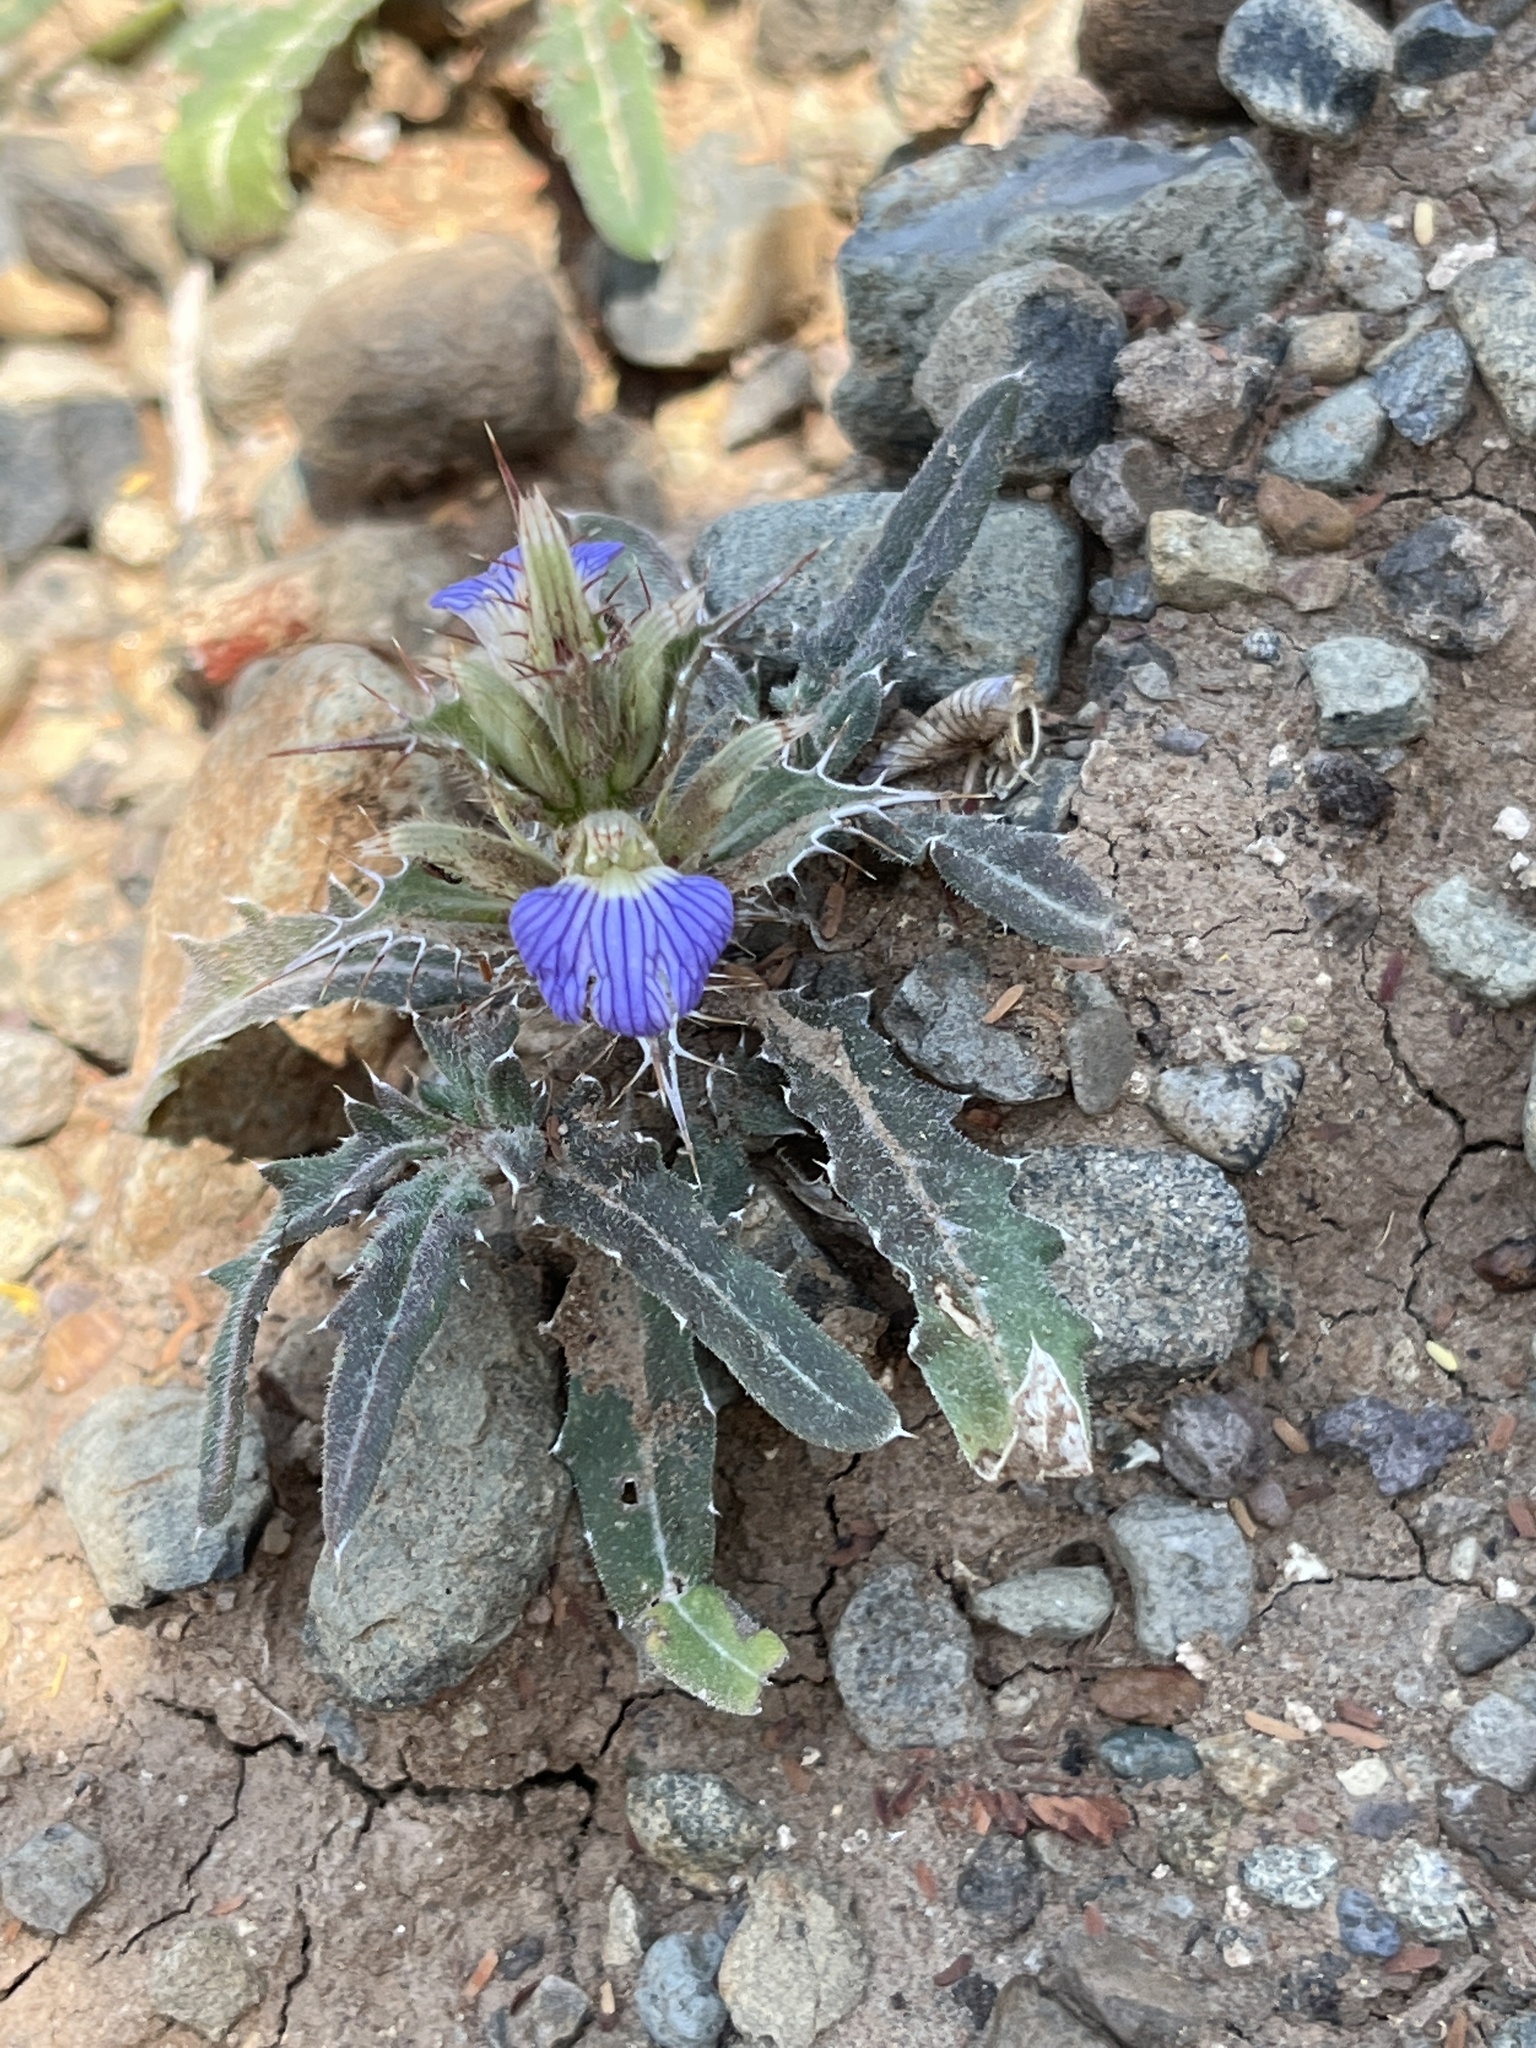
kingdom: Plantae
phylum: Tracheophyta
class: Magnoliopsida
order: Lamiales
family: Acanthaceae
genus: Blepharis
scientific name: Blepharis edulis
